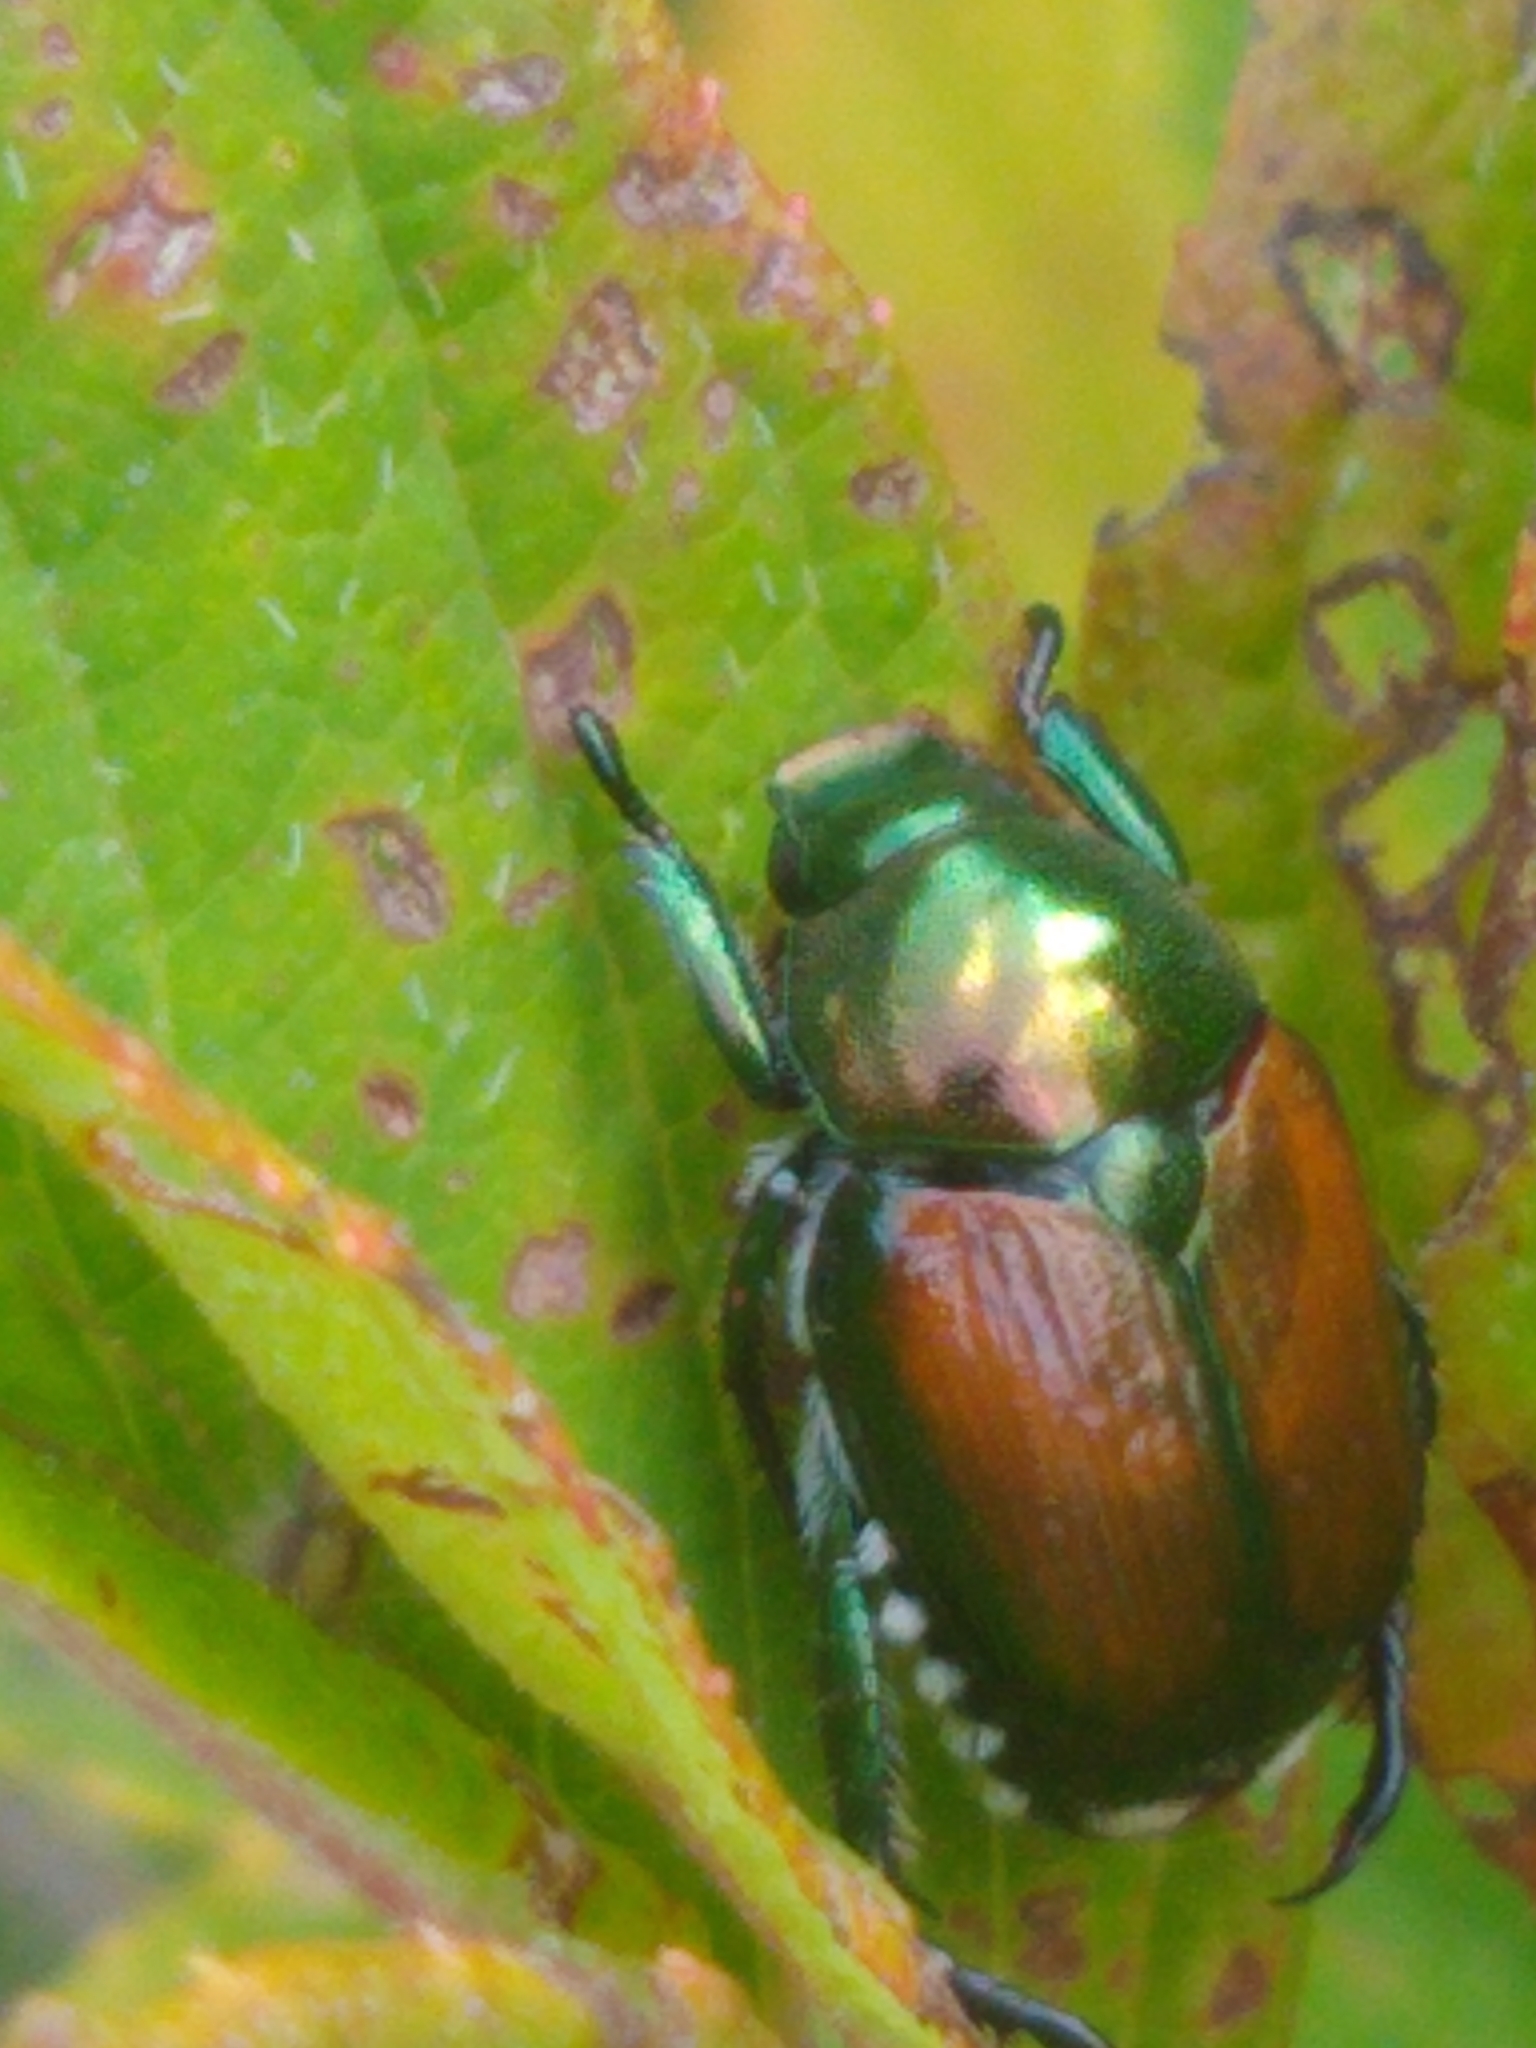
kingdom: Animalia
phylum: Arthropoda
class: Insecta
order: Coleoptera
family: Scarabaeidae
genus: Popillia
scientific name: Popillia japonica
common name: Japanese beetle
